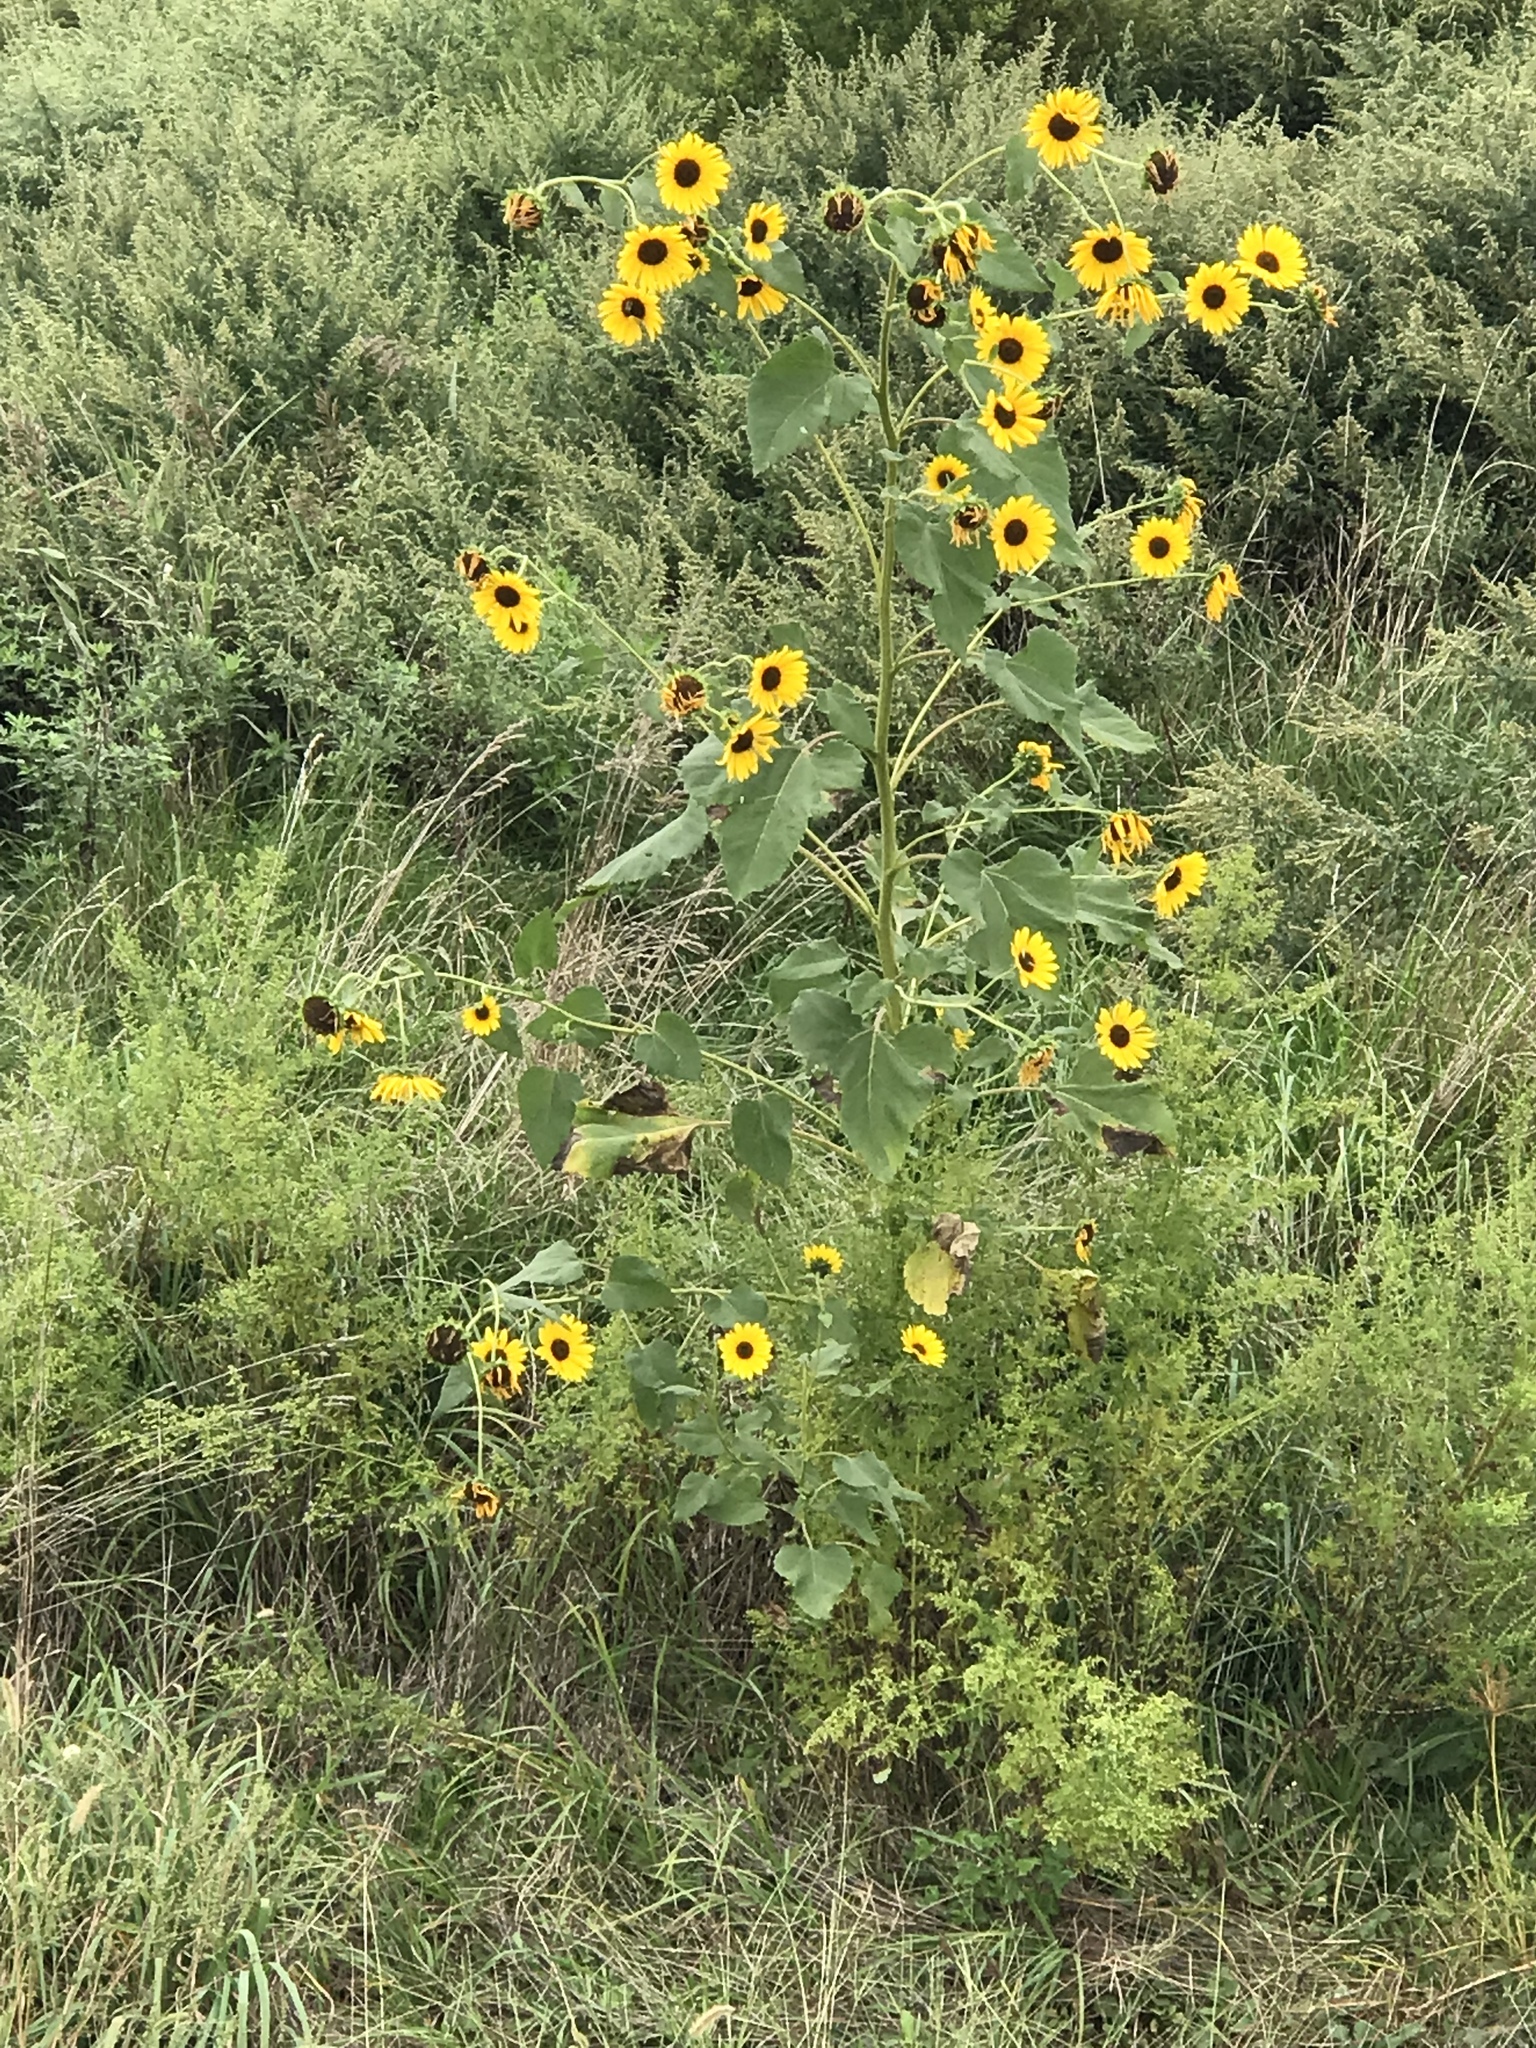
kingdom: Plantae
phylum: Tracheophyta
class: Magnoliopsida
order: Asterales
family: Asteraceae
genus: Helianthus
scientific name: Helianthus annuus
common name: Sunflower
